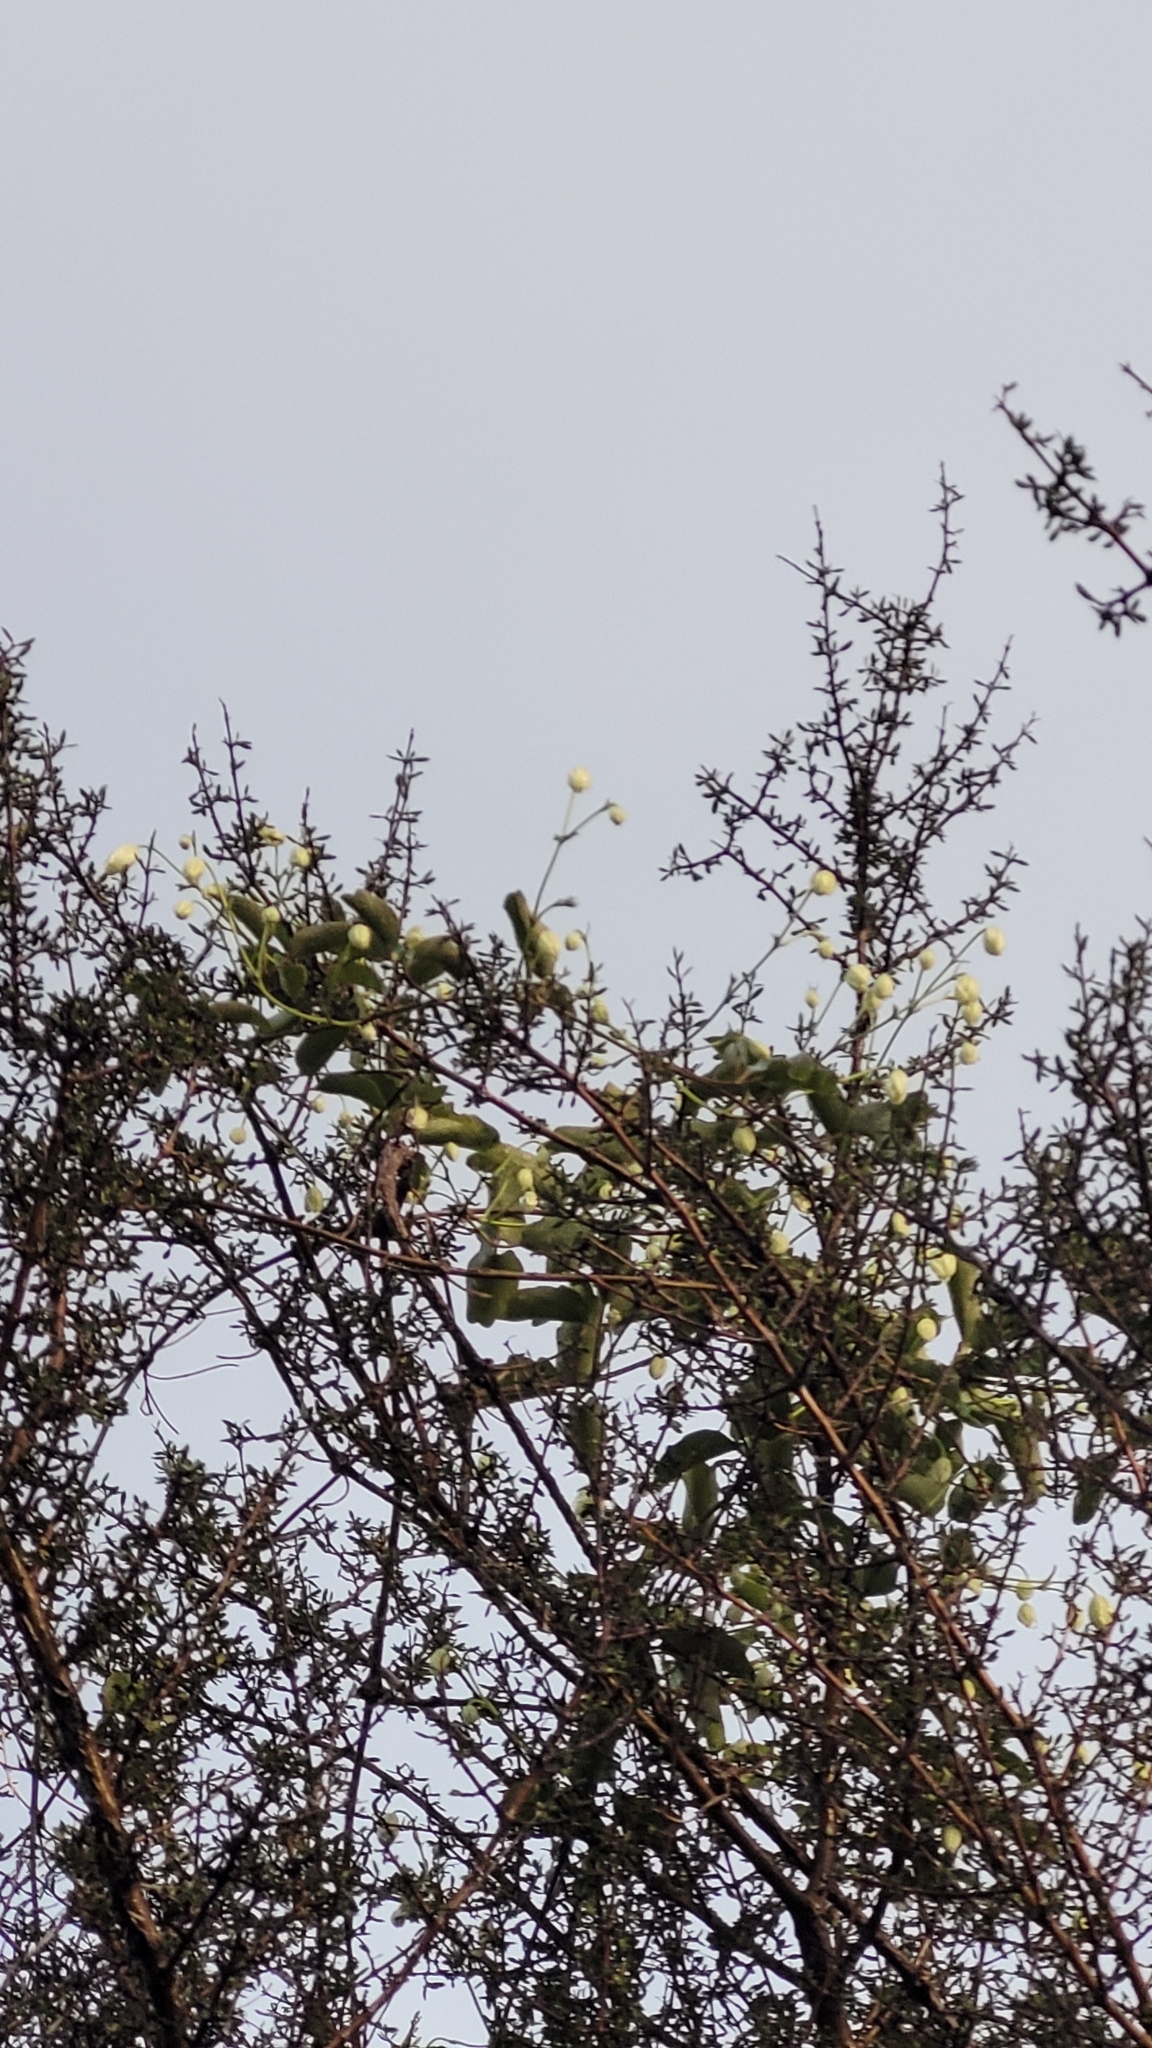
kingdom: Plantae
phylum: Tracheophyta
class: Magnoliopsida
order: Ranunculales
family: Ranunculaceae
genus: Clematis
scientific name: Clematis paniculata
